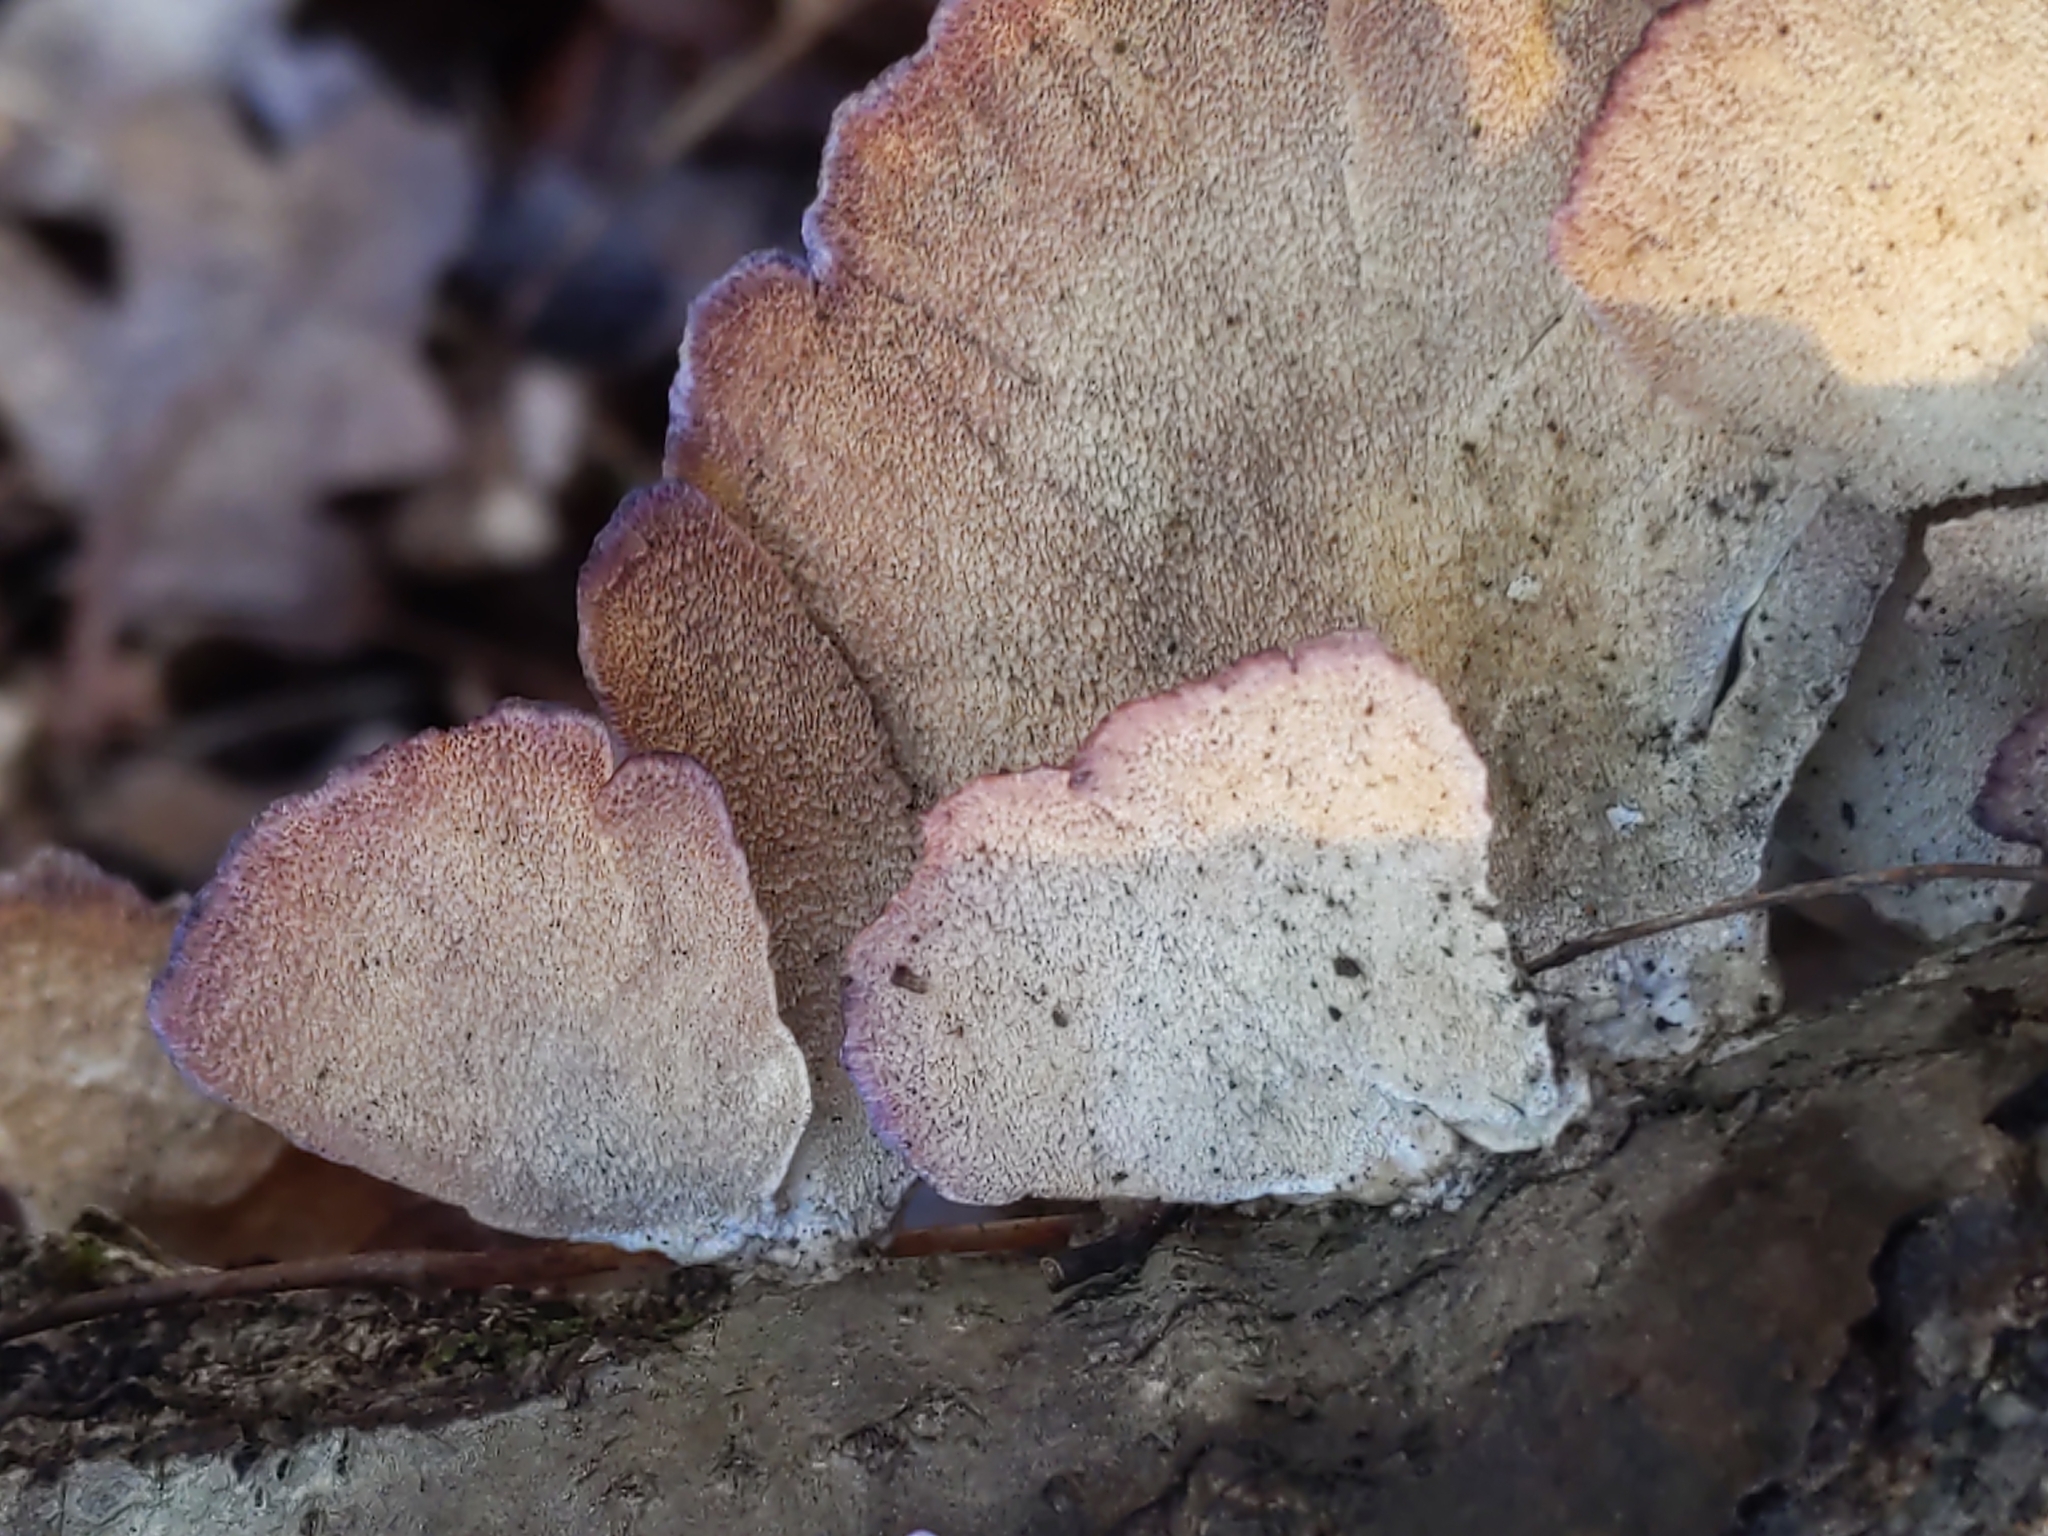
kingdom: Fungi
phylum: Basidiomycota
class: Agaricomycetes
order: Hymenochaetales
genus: Trichaptum
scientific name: Trichaptum biforme
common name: Violet-toothed polypore
